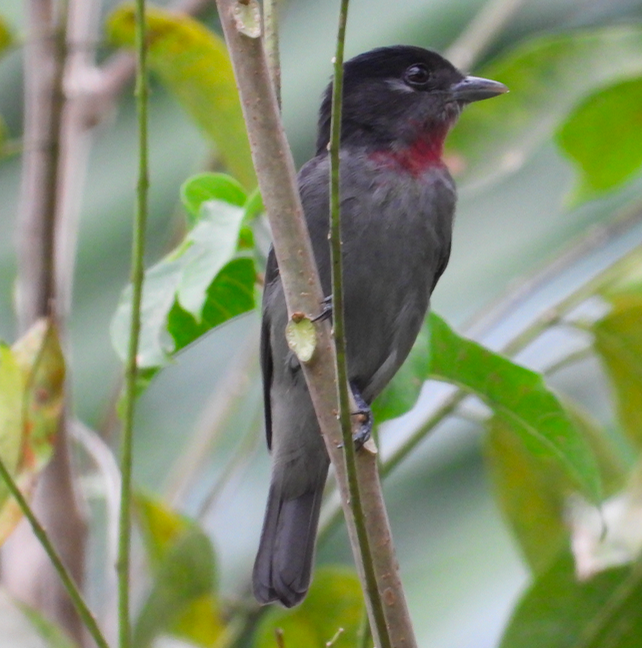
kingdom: Animalia
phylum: Chordata
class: Aves
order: Passeriformes
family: Cotingidae
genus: Pachyramphus
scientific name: Pachyramphus aglaiae
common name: Rose-throated becard
